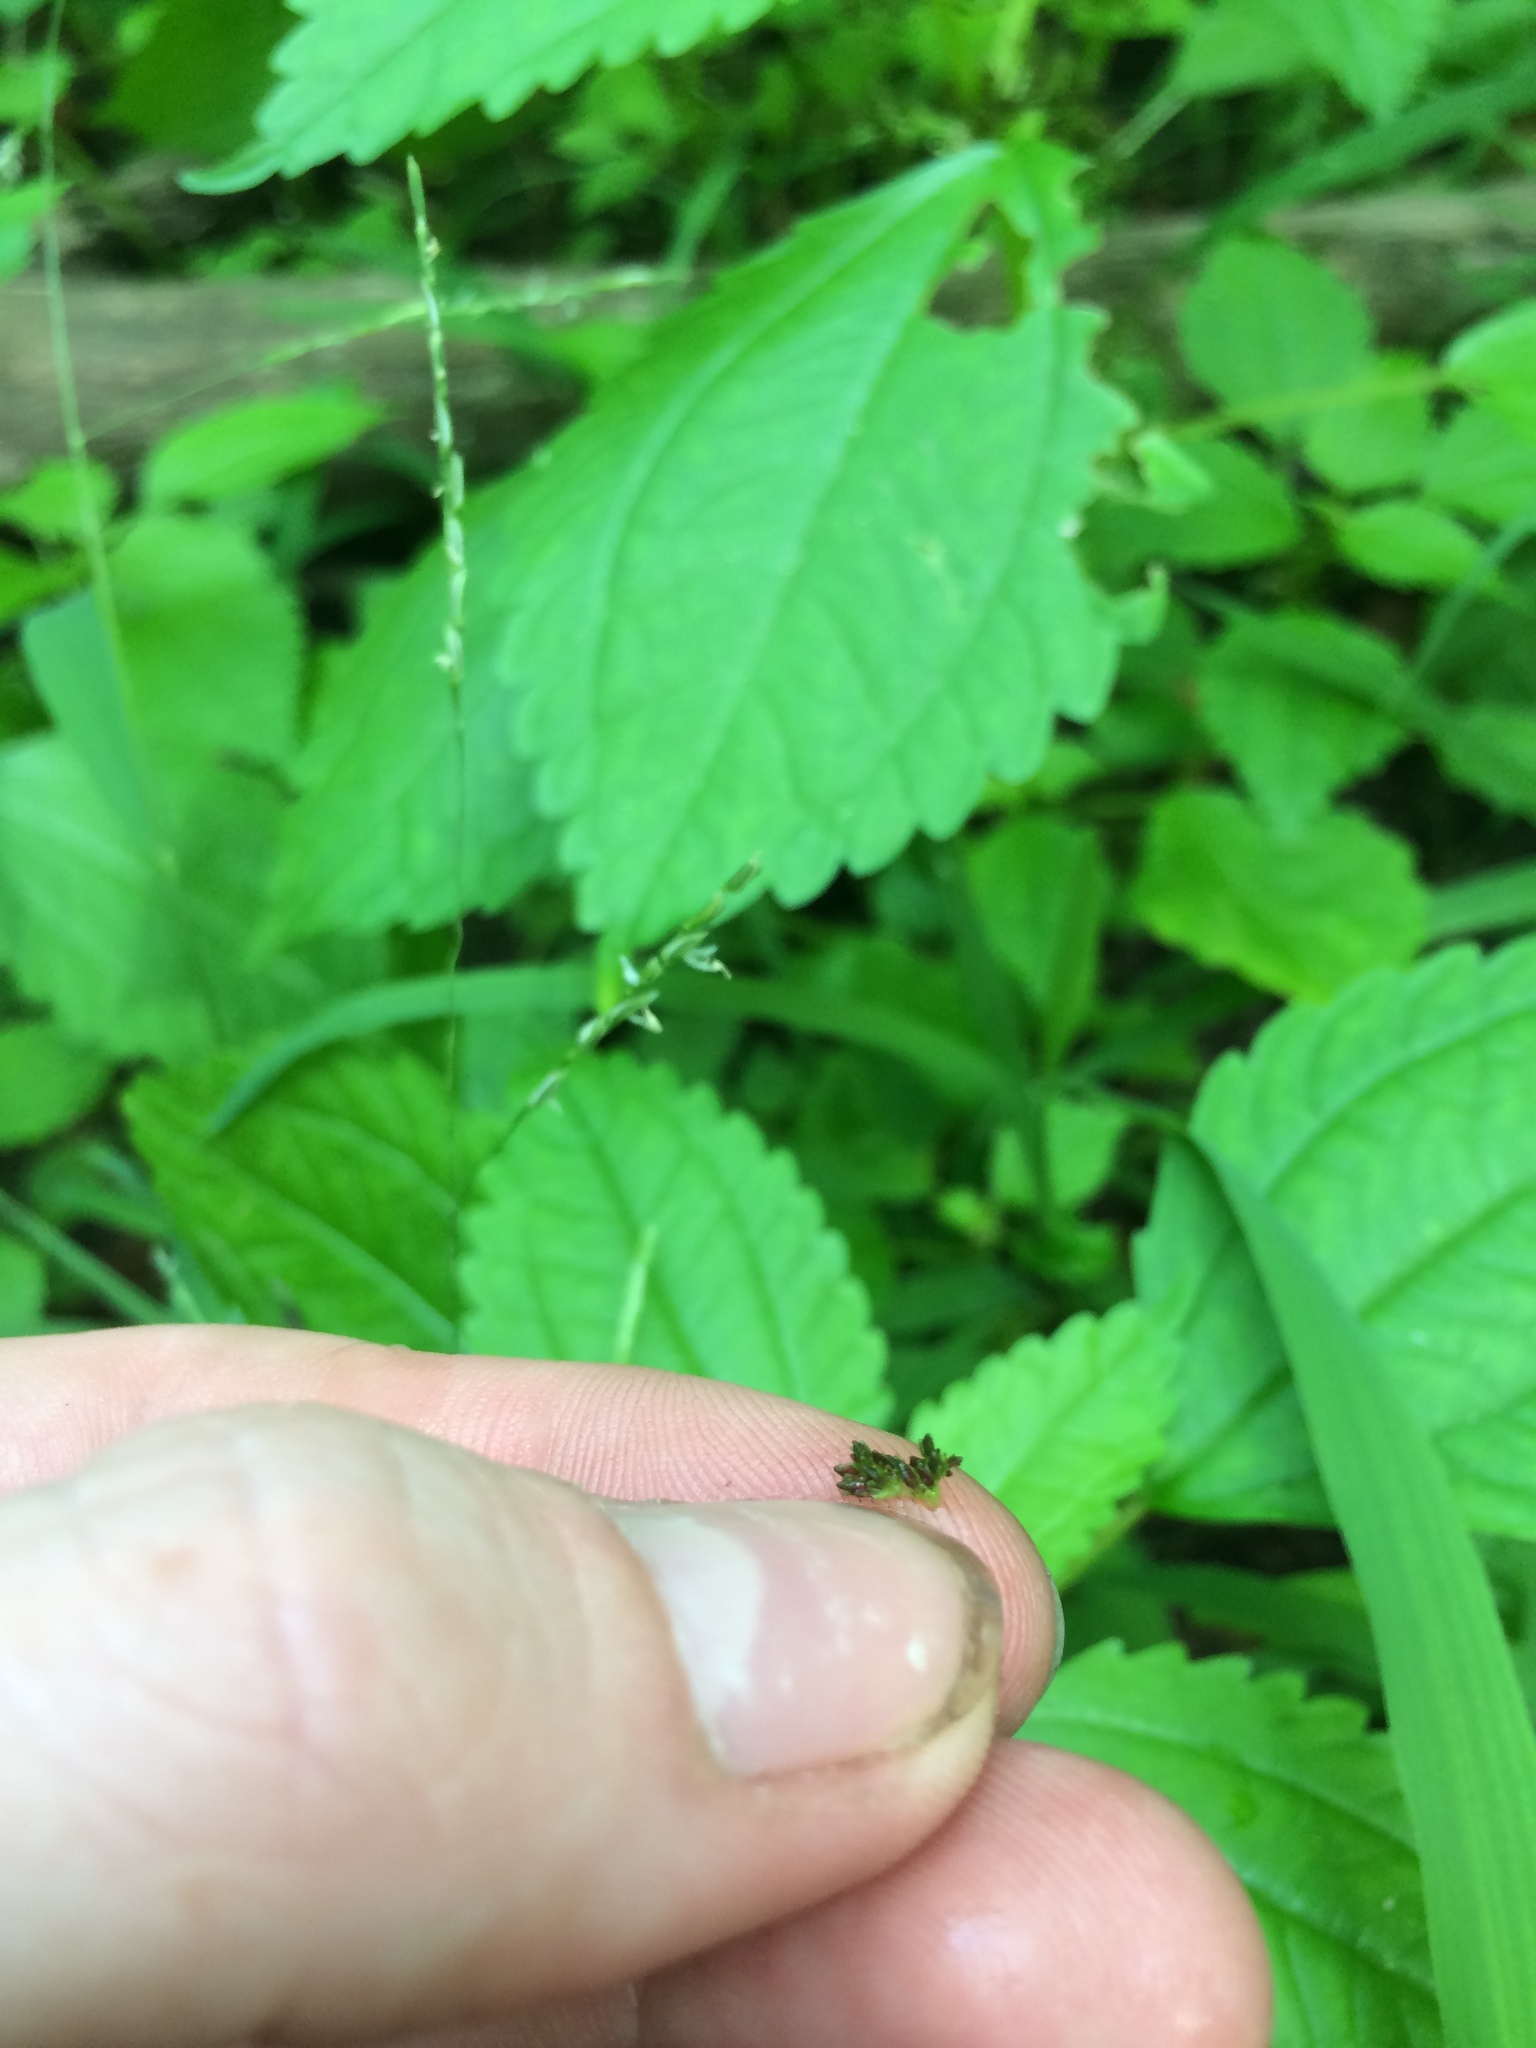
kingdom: Plantae
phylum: Tracheophyta
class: Magnoliopsida
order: Rosales
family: Urticaceae
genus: Pilea
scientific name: Pilea fontana
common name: Clearweed
